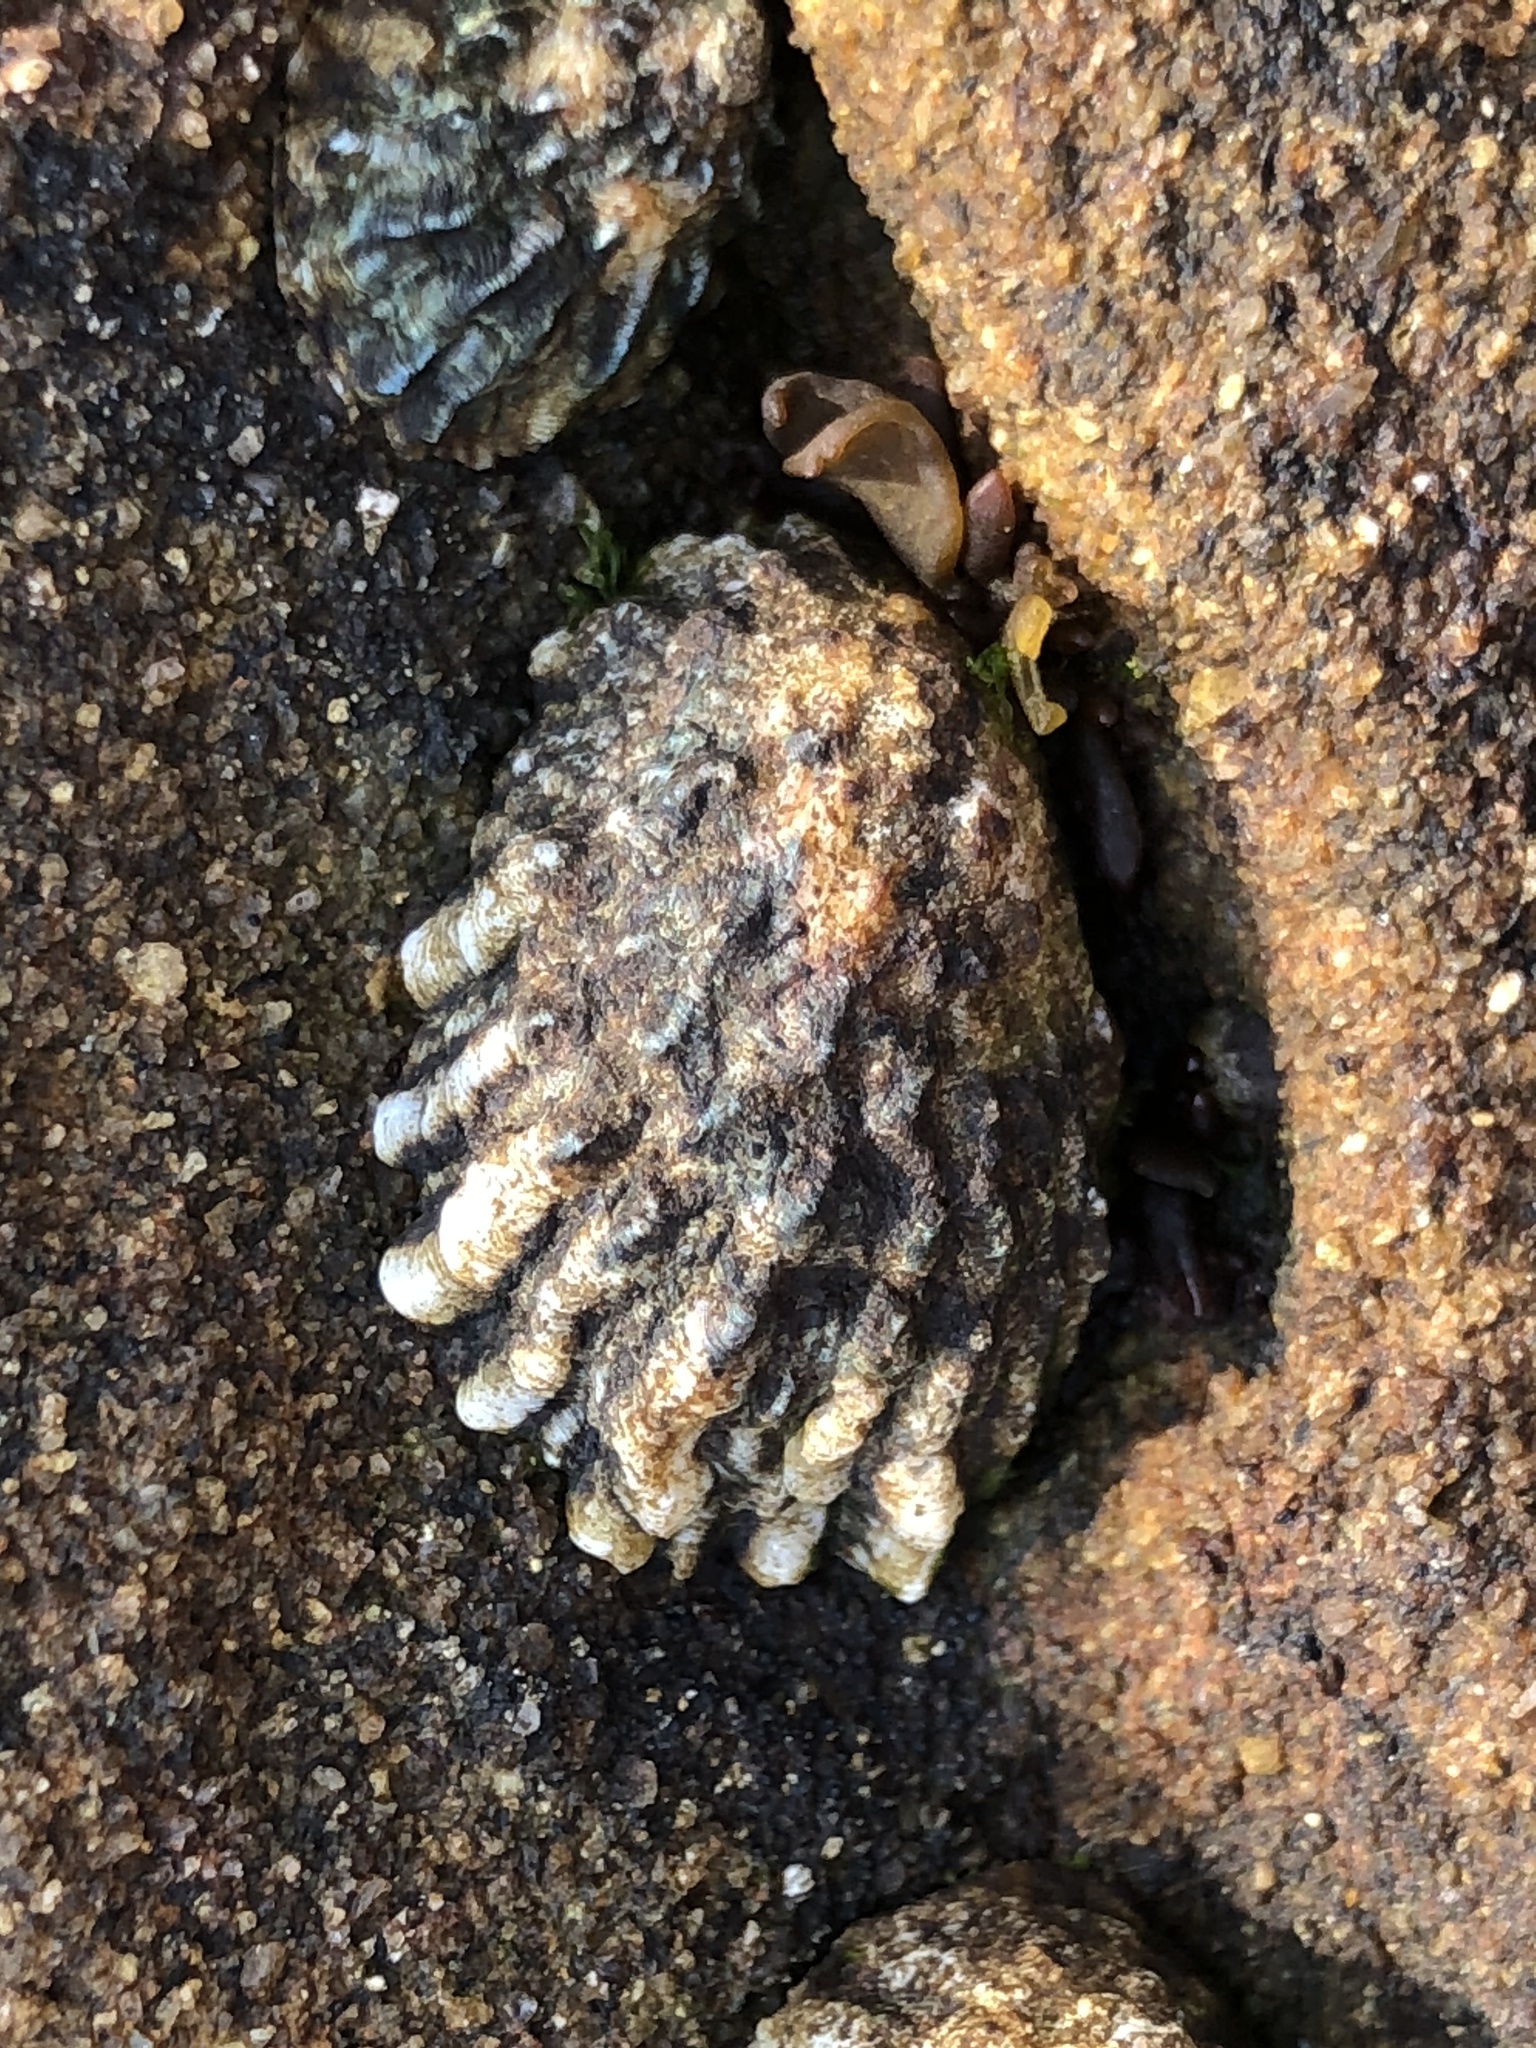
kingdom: Animalia
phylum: Mollusca
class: Gastropoda
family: Lottiidae
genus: Lottia
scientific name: Lottia scabra
